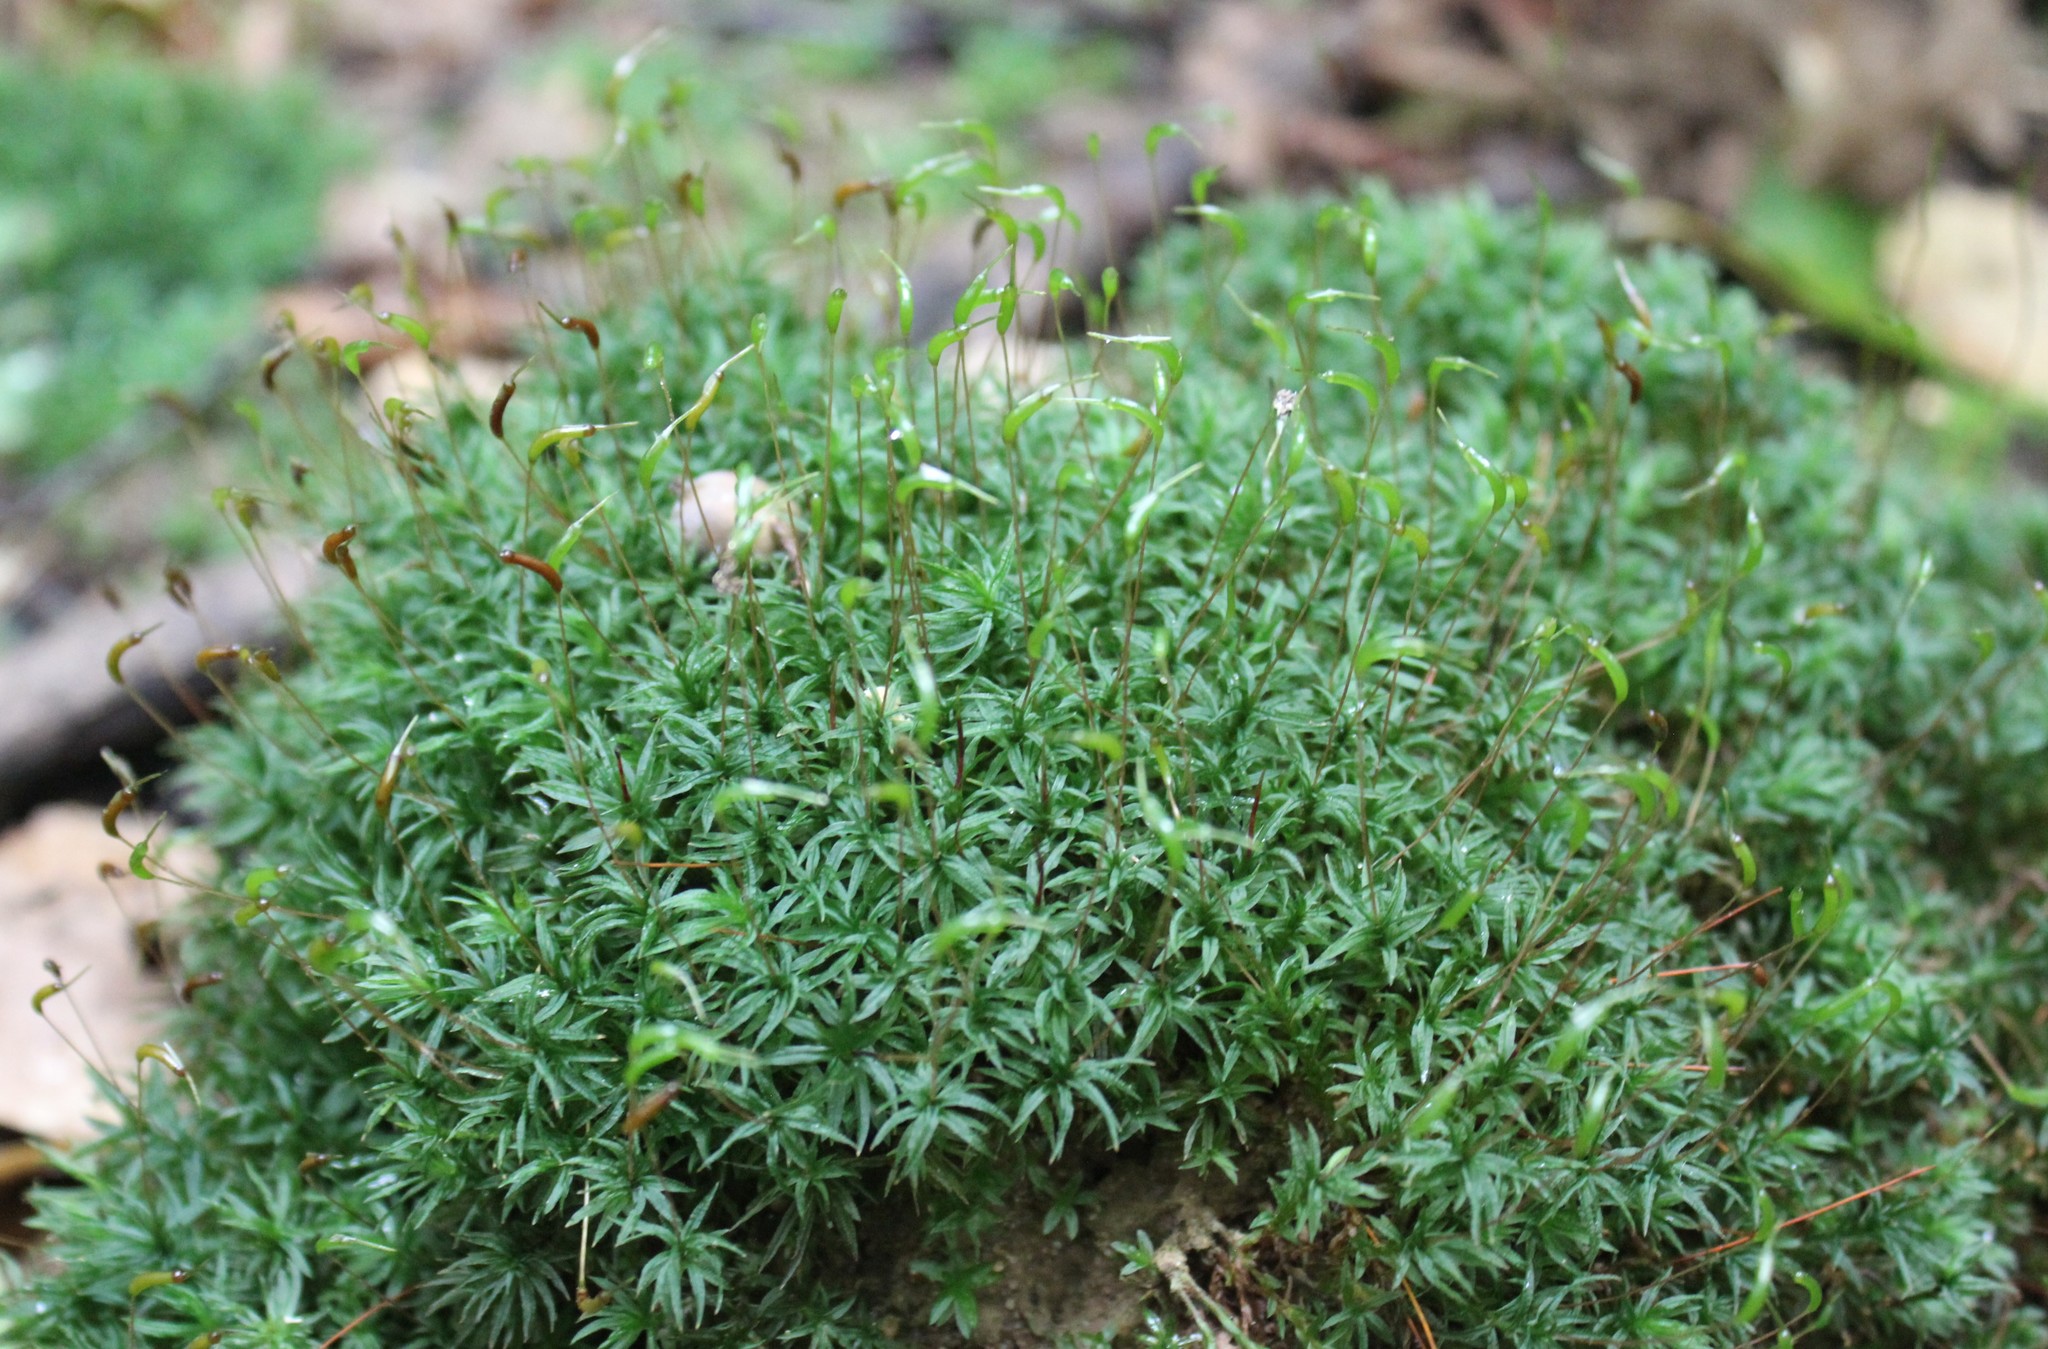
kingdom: Plantae
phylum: Bryophyta
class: Polytrichopsida
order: Polytrichales
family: Polytrichaceae
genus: Atrichum
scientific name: Atrichum undulatum
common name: Common smoothcap
